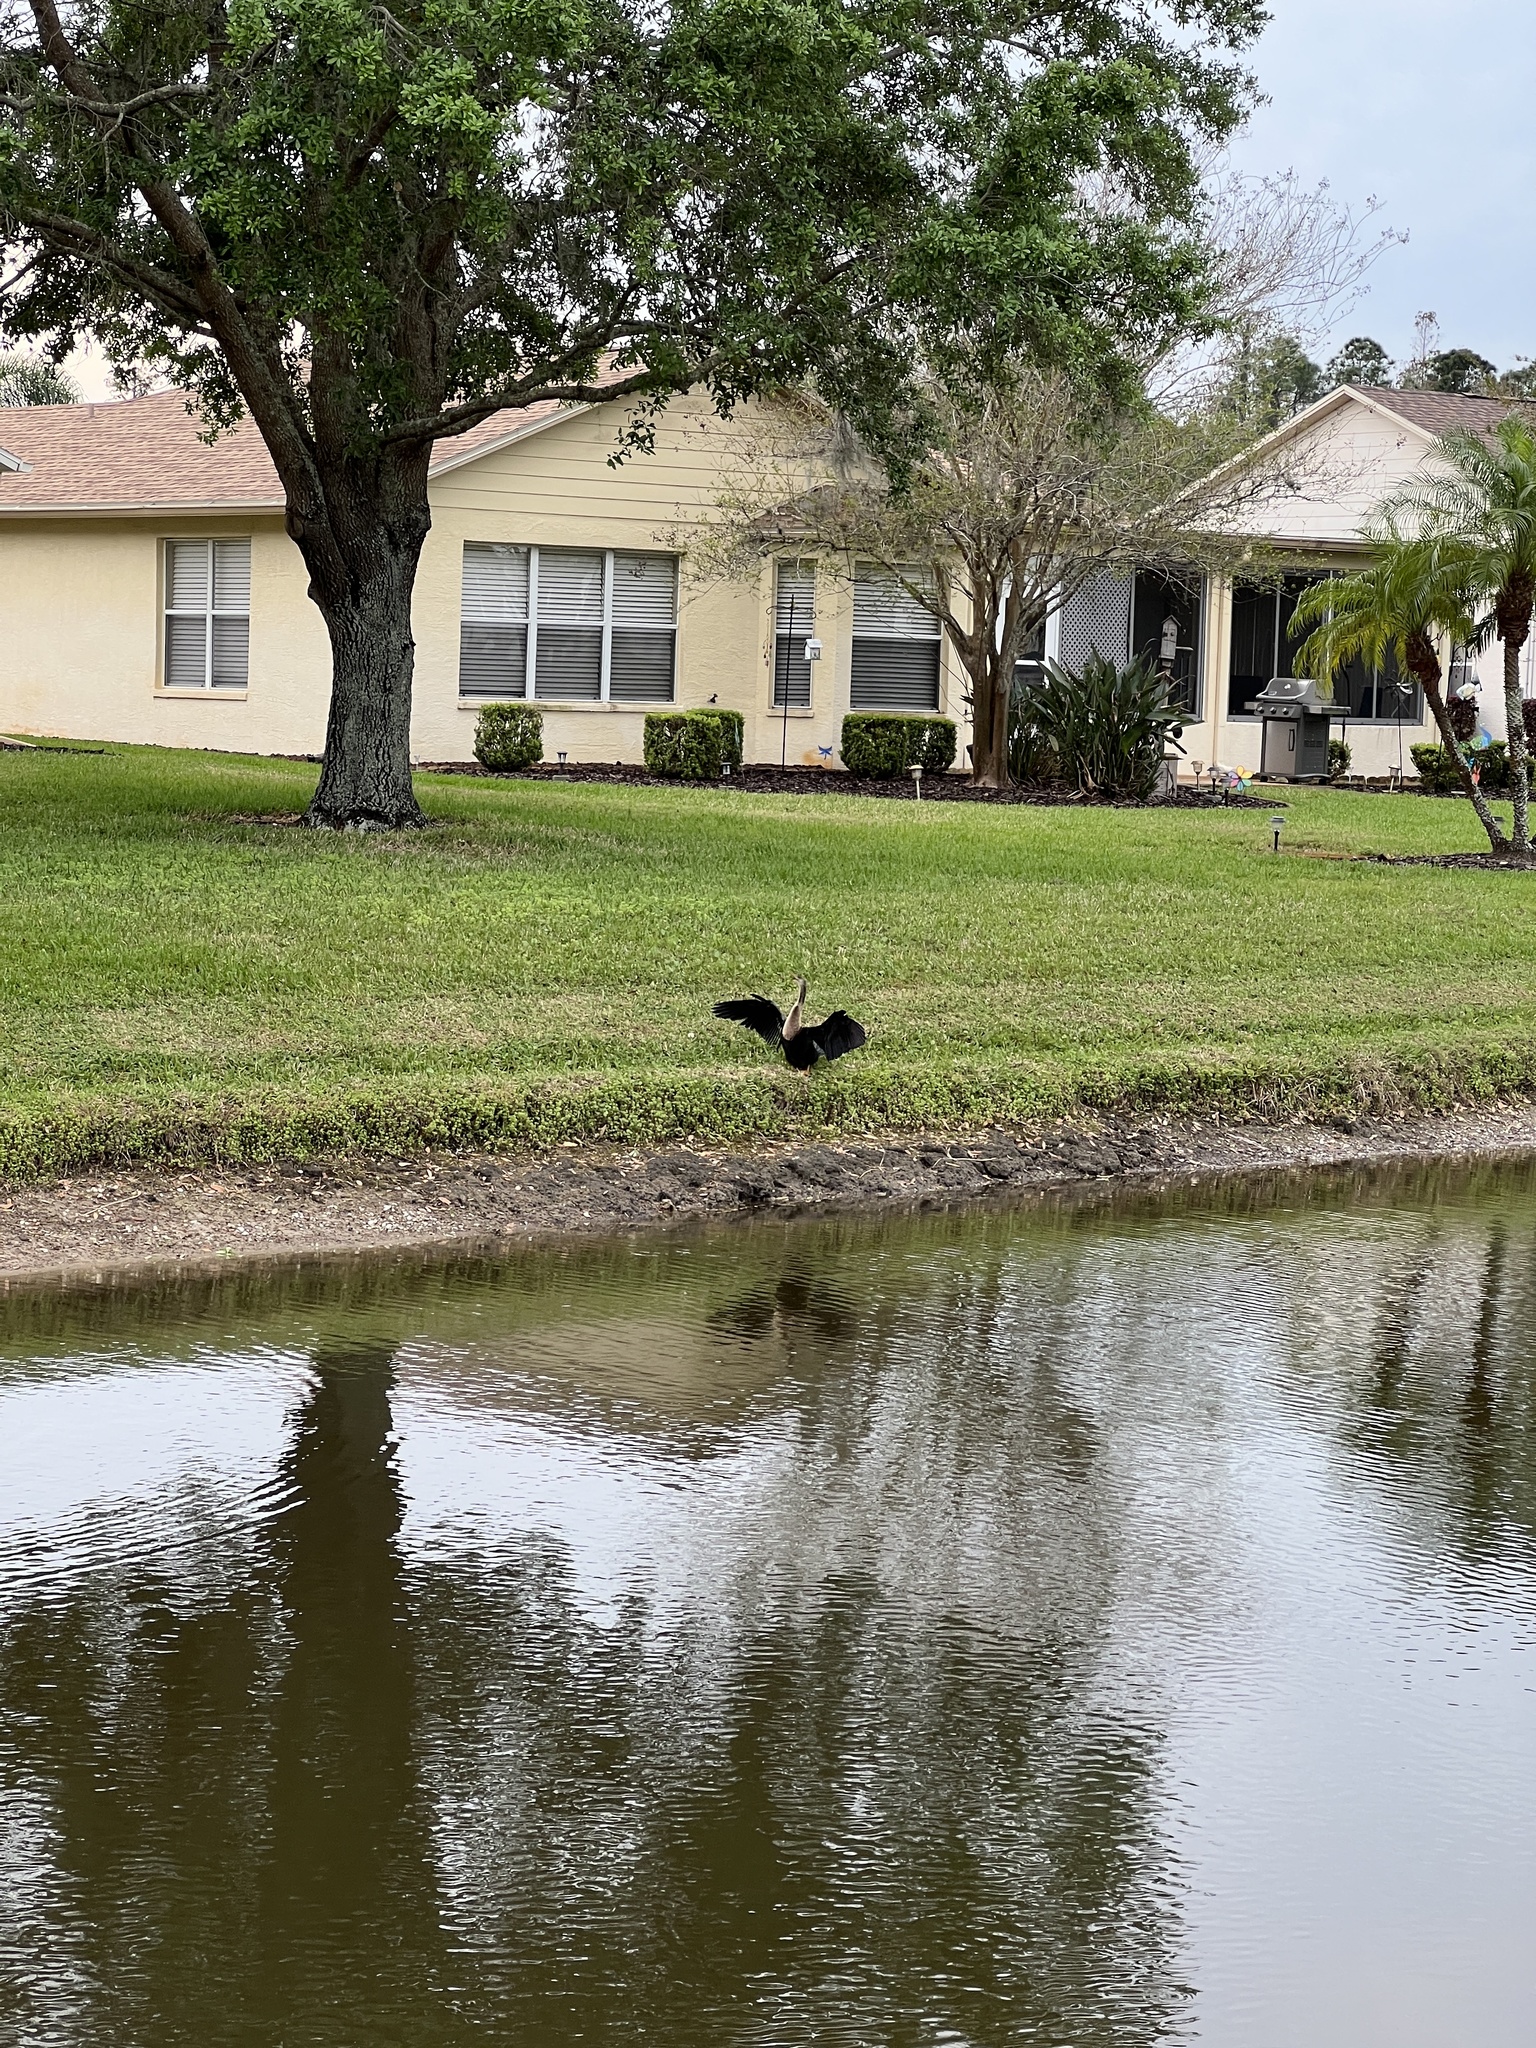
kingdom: Animalia
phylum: Chordata
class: Aves
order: Suliformes
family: Anhingidae
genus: Anhinga
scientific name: Anhinga anhinga
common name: Anhinga
